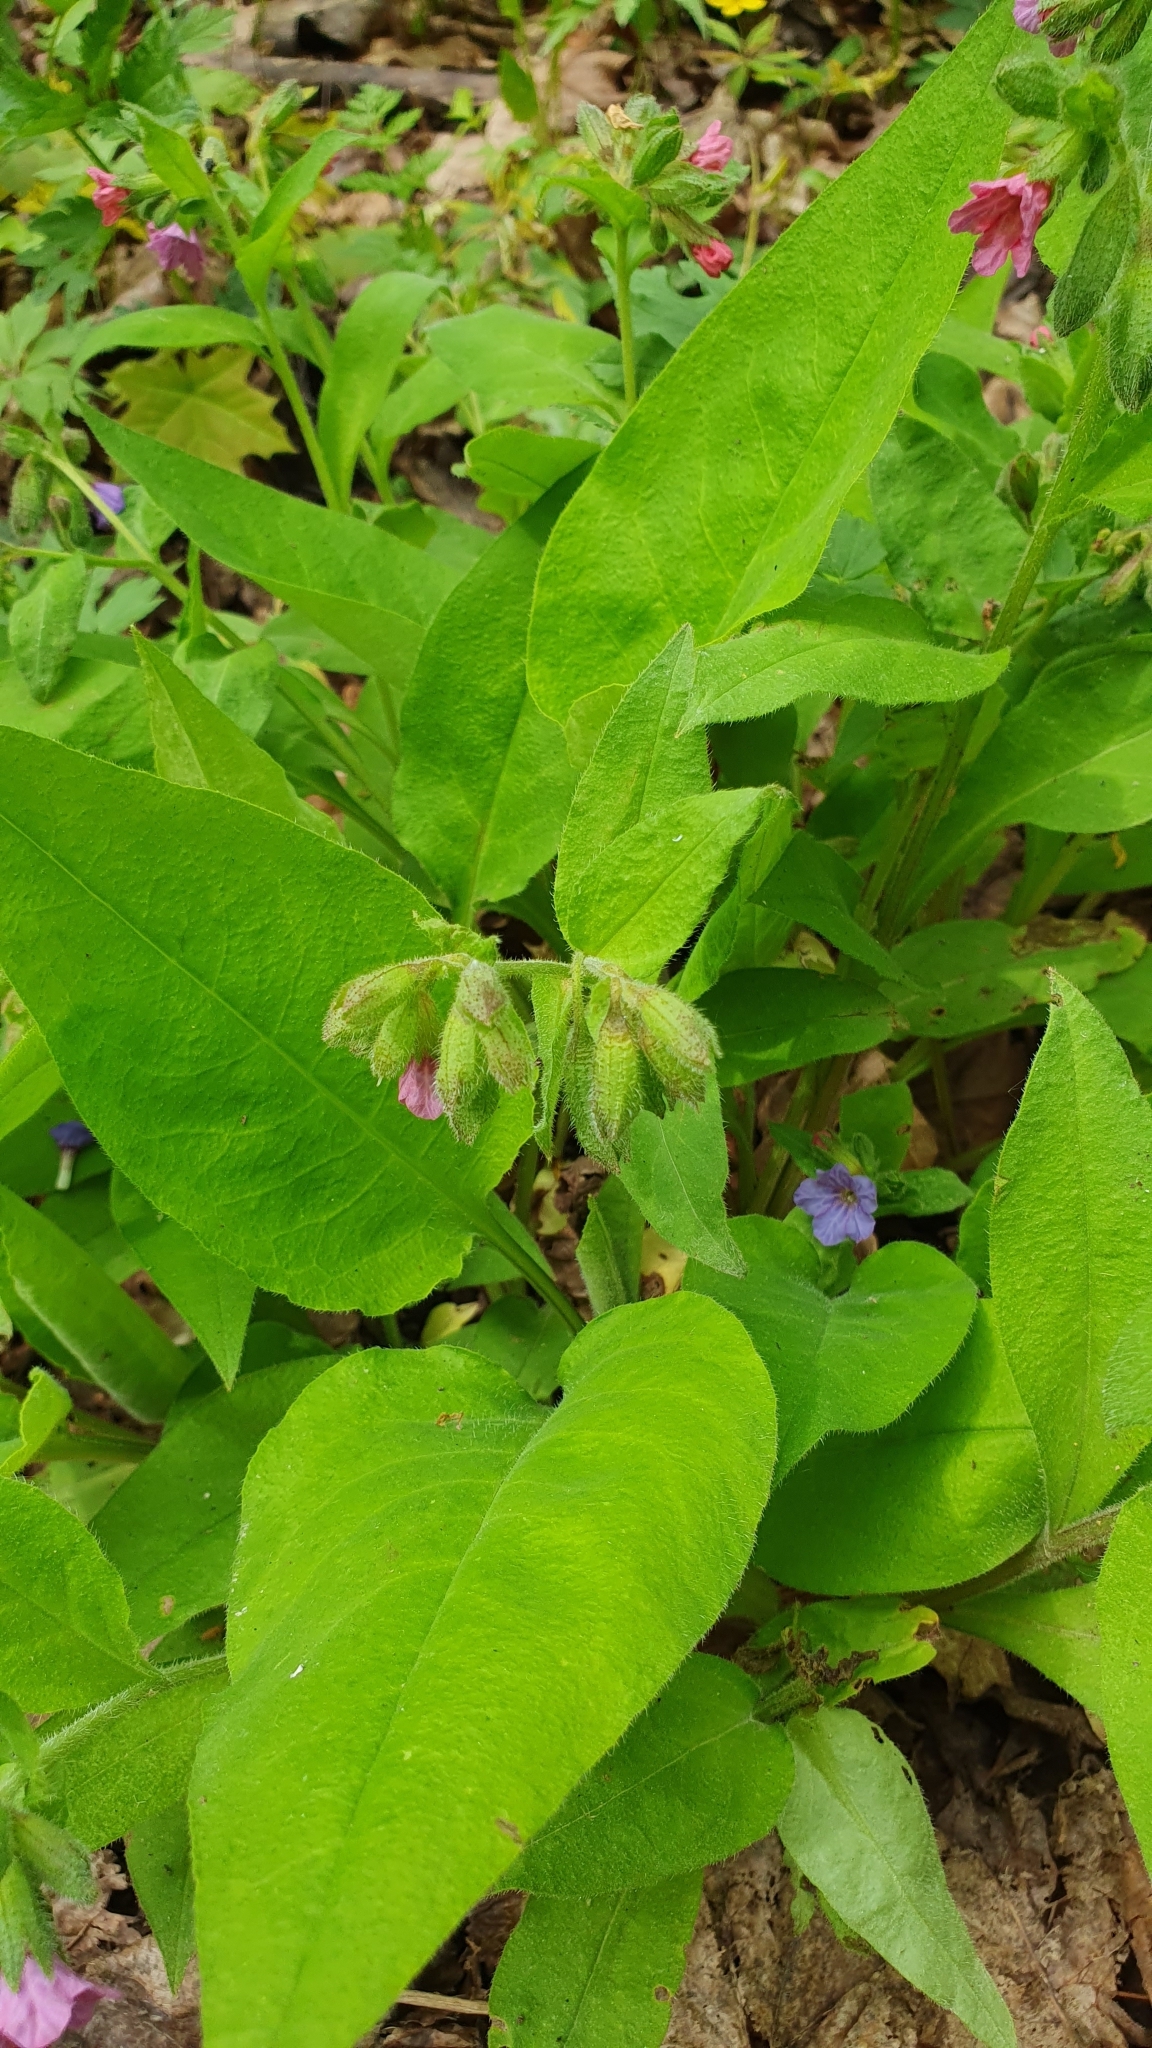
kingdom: Plantae
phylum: Tracheophyta
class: Magnoliopsida
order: Boraginales
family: Boraginaceae
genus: Pulmonaria
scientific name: Pulmonaria obscura
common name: Suffolk lungwort
